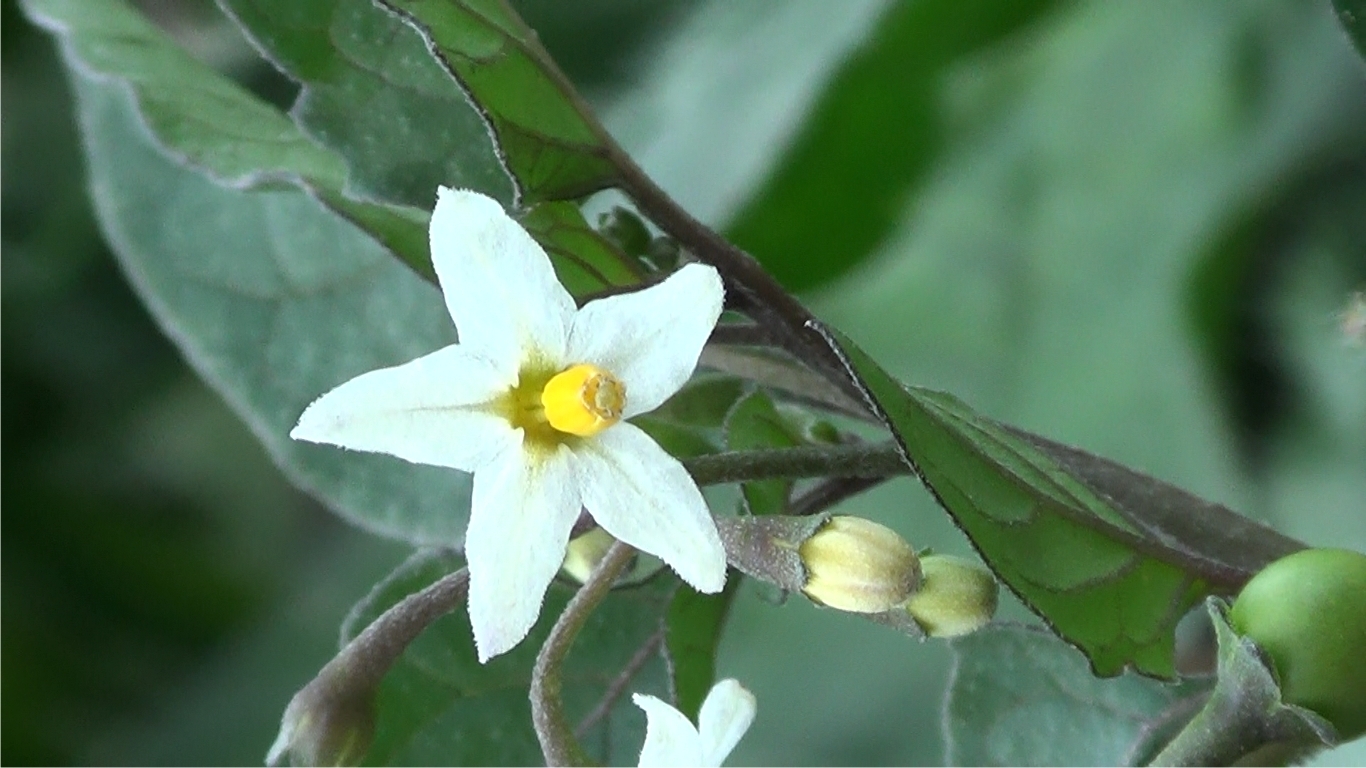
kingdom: Plantae
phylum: Tracheophyta
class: Magnoliopsida
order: Solanales
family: Solanaceae
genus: Solanum
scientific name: Solanum nigrum
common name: Black nightshade
